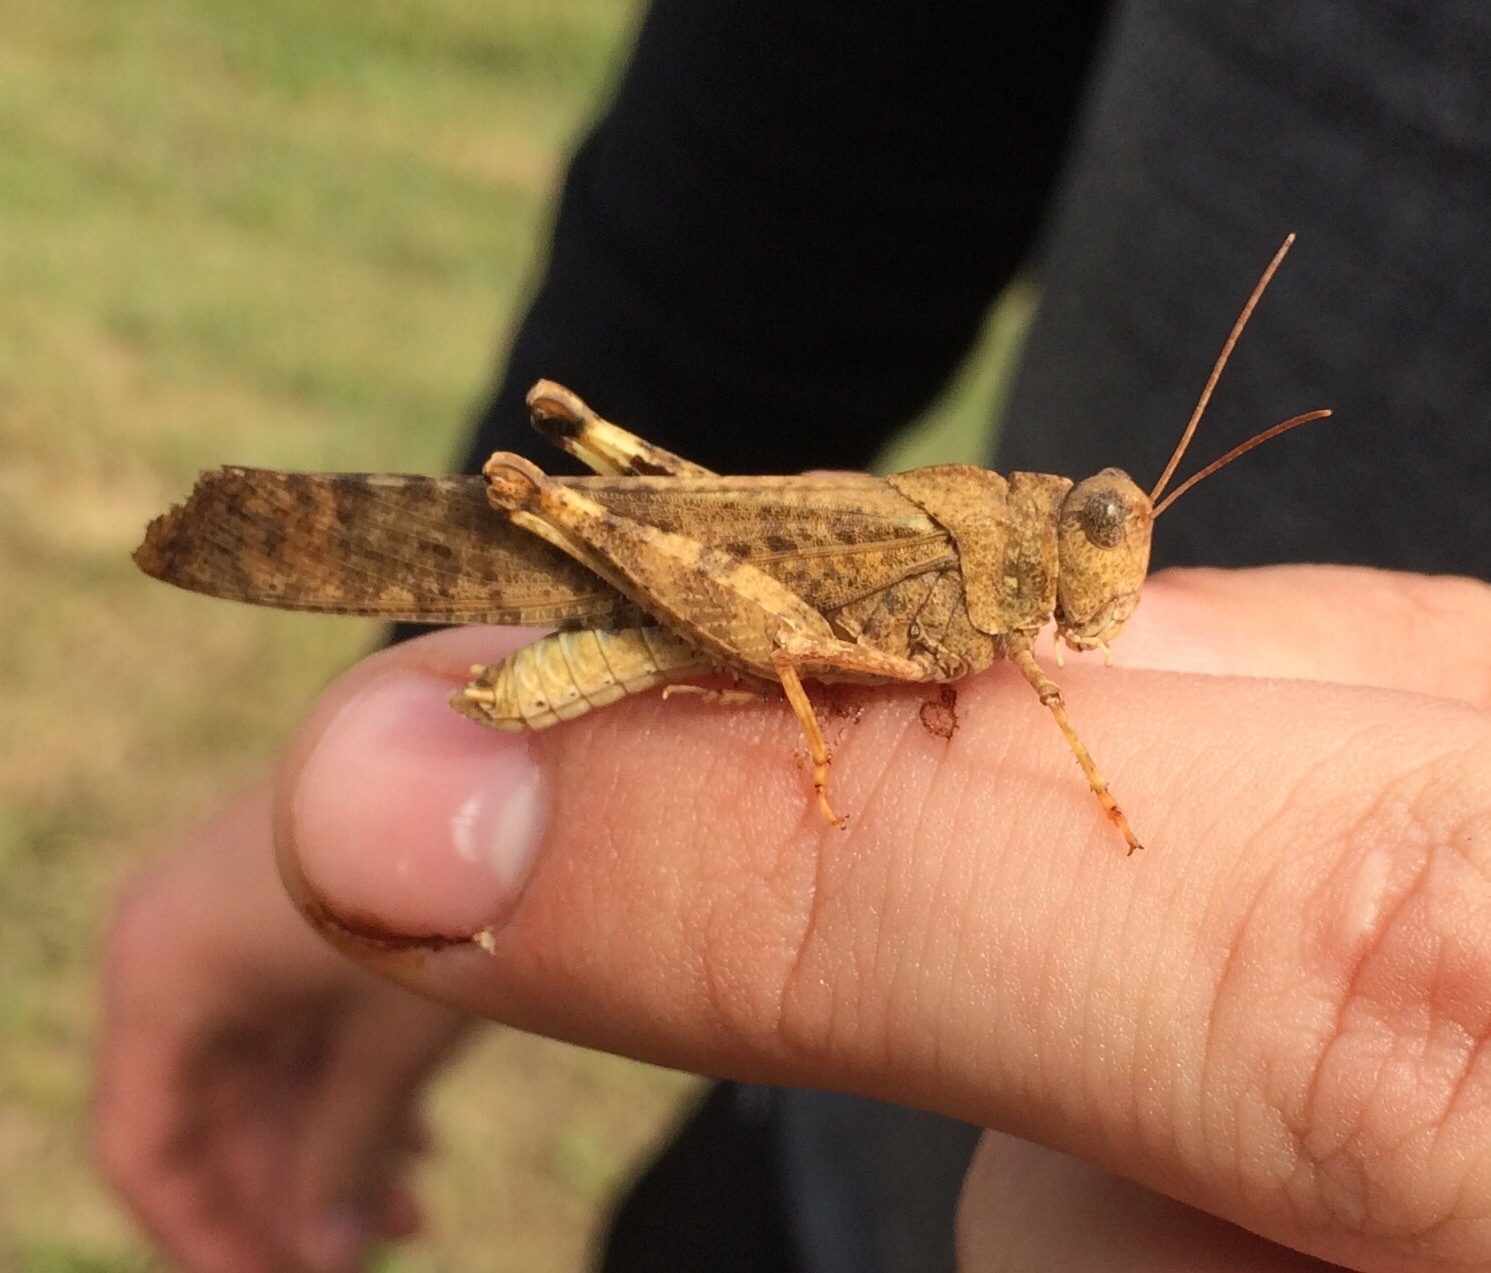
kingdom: Animalia
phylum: Arthropoda
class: Insecta
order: Orthoptera
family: Acrididae
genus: Dissosteira
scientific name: Dissosteira carolina
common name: Carolina grasshopper
